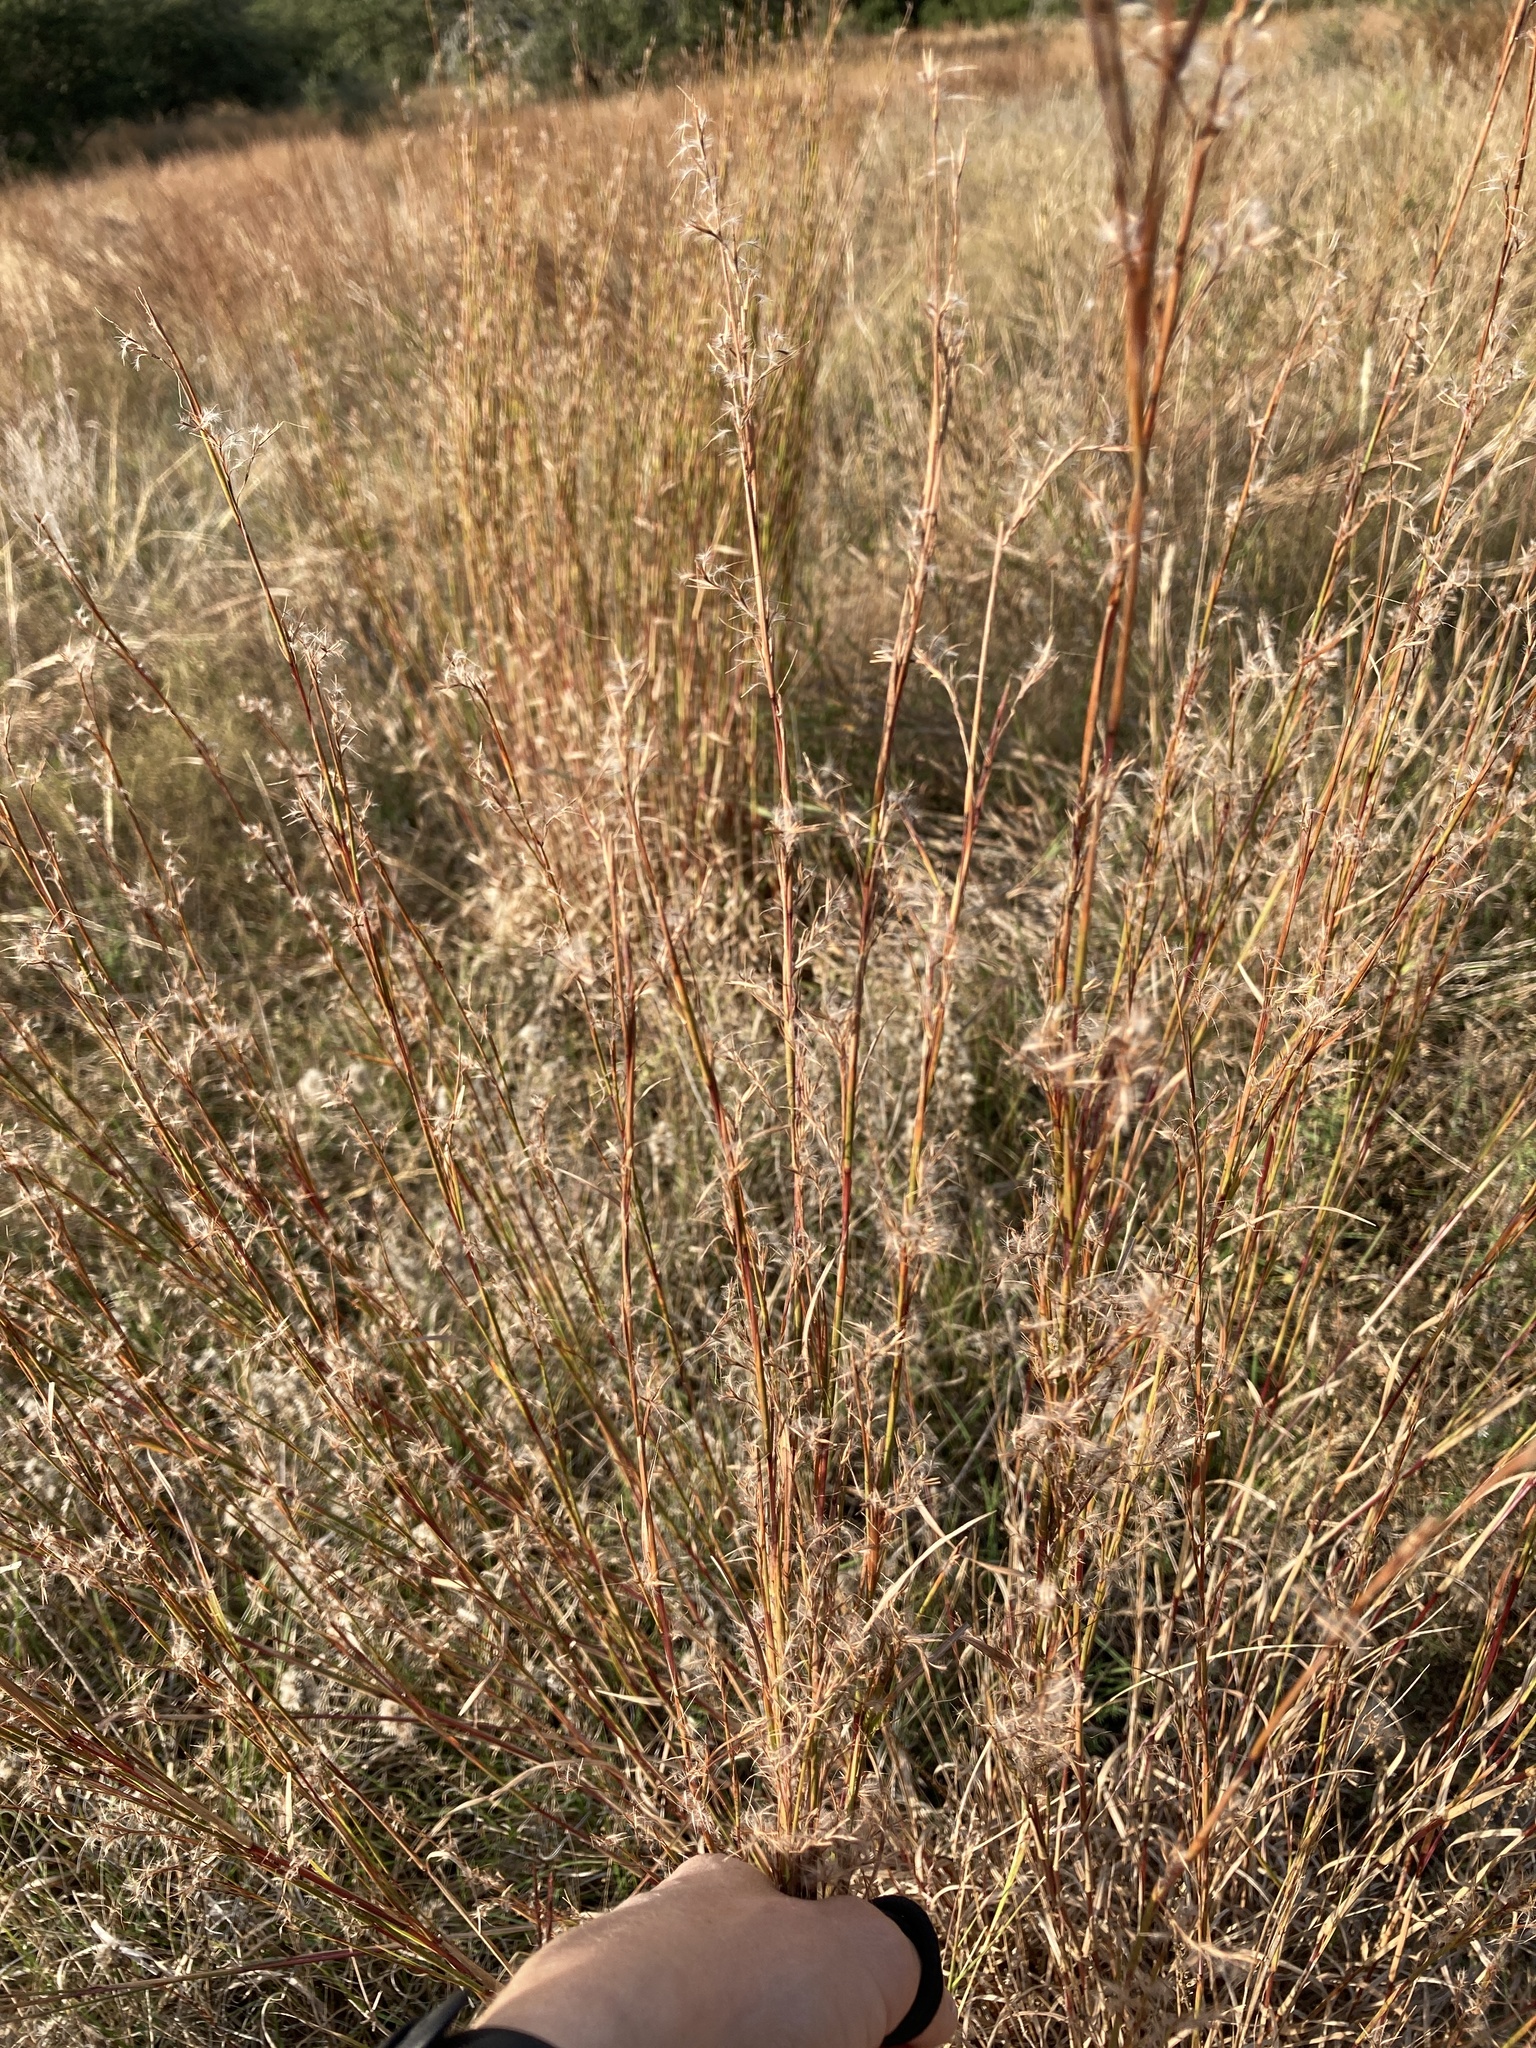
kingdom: Plantae
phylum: Tracheophyta
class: Liliopsida
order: Poales
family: Poaceae
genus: Schizachyrium
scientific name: Schizachyrium scoparium
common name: Little bluestem
